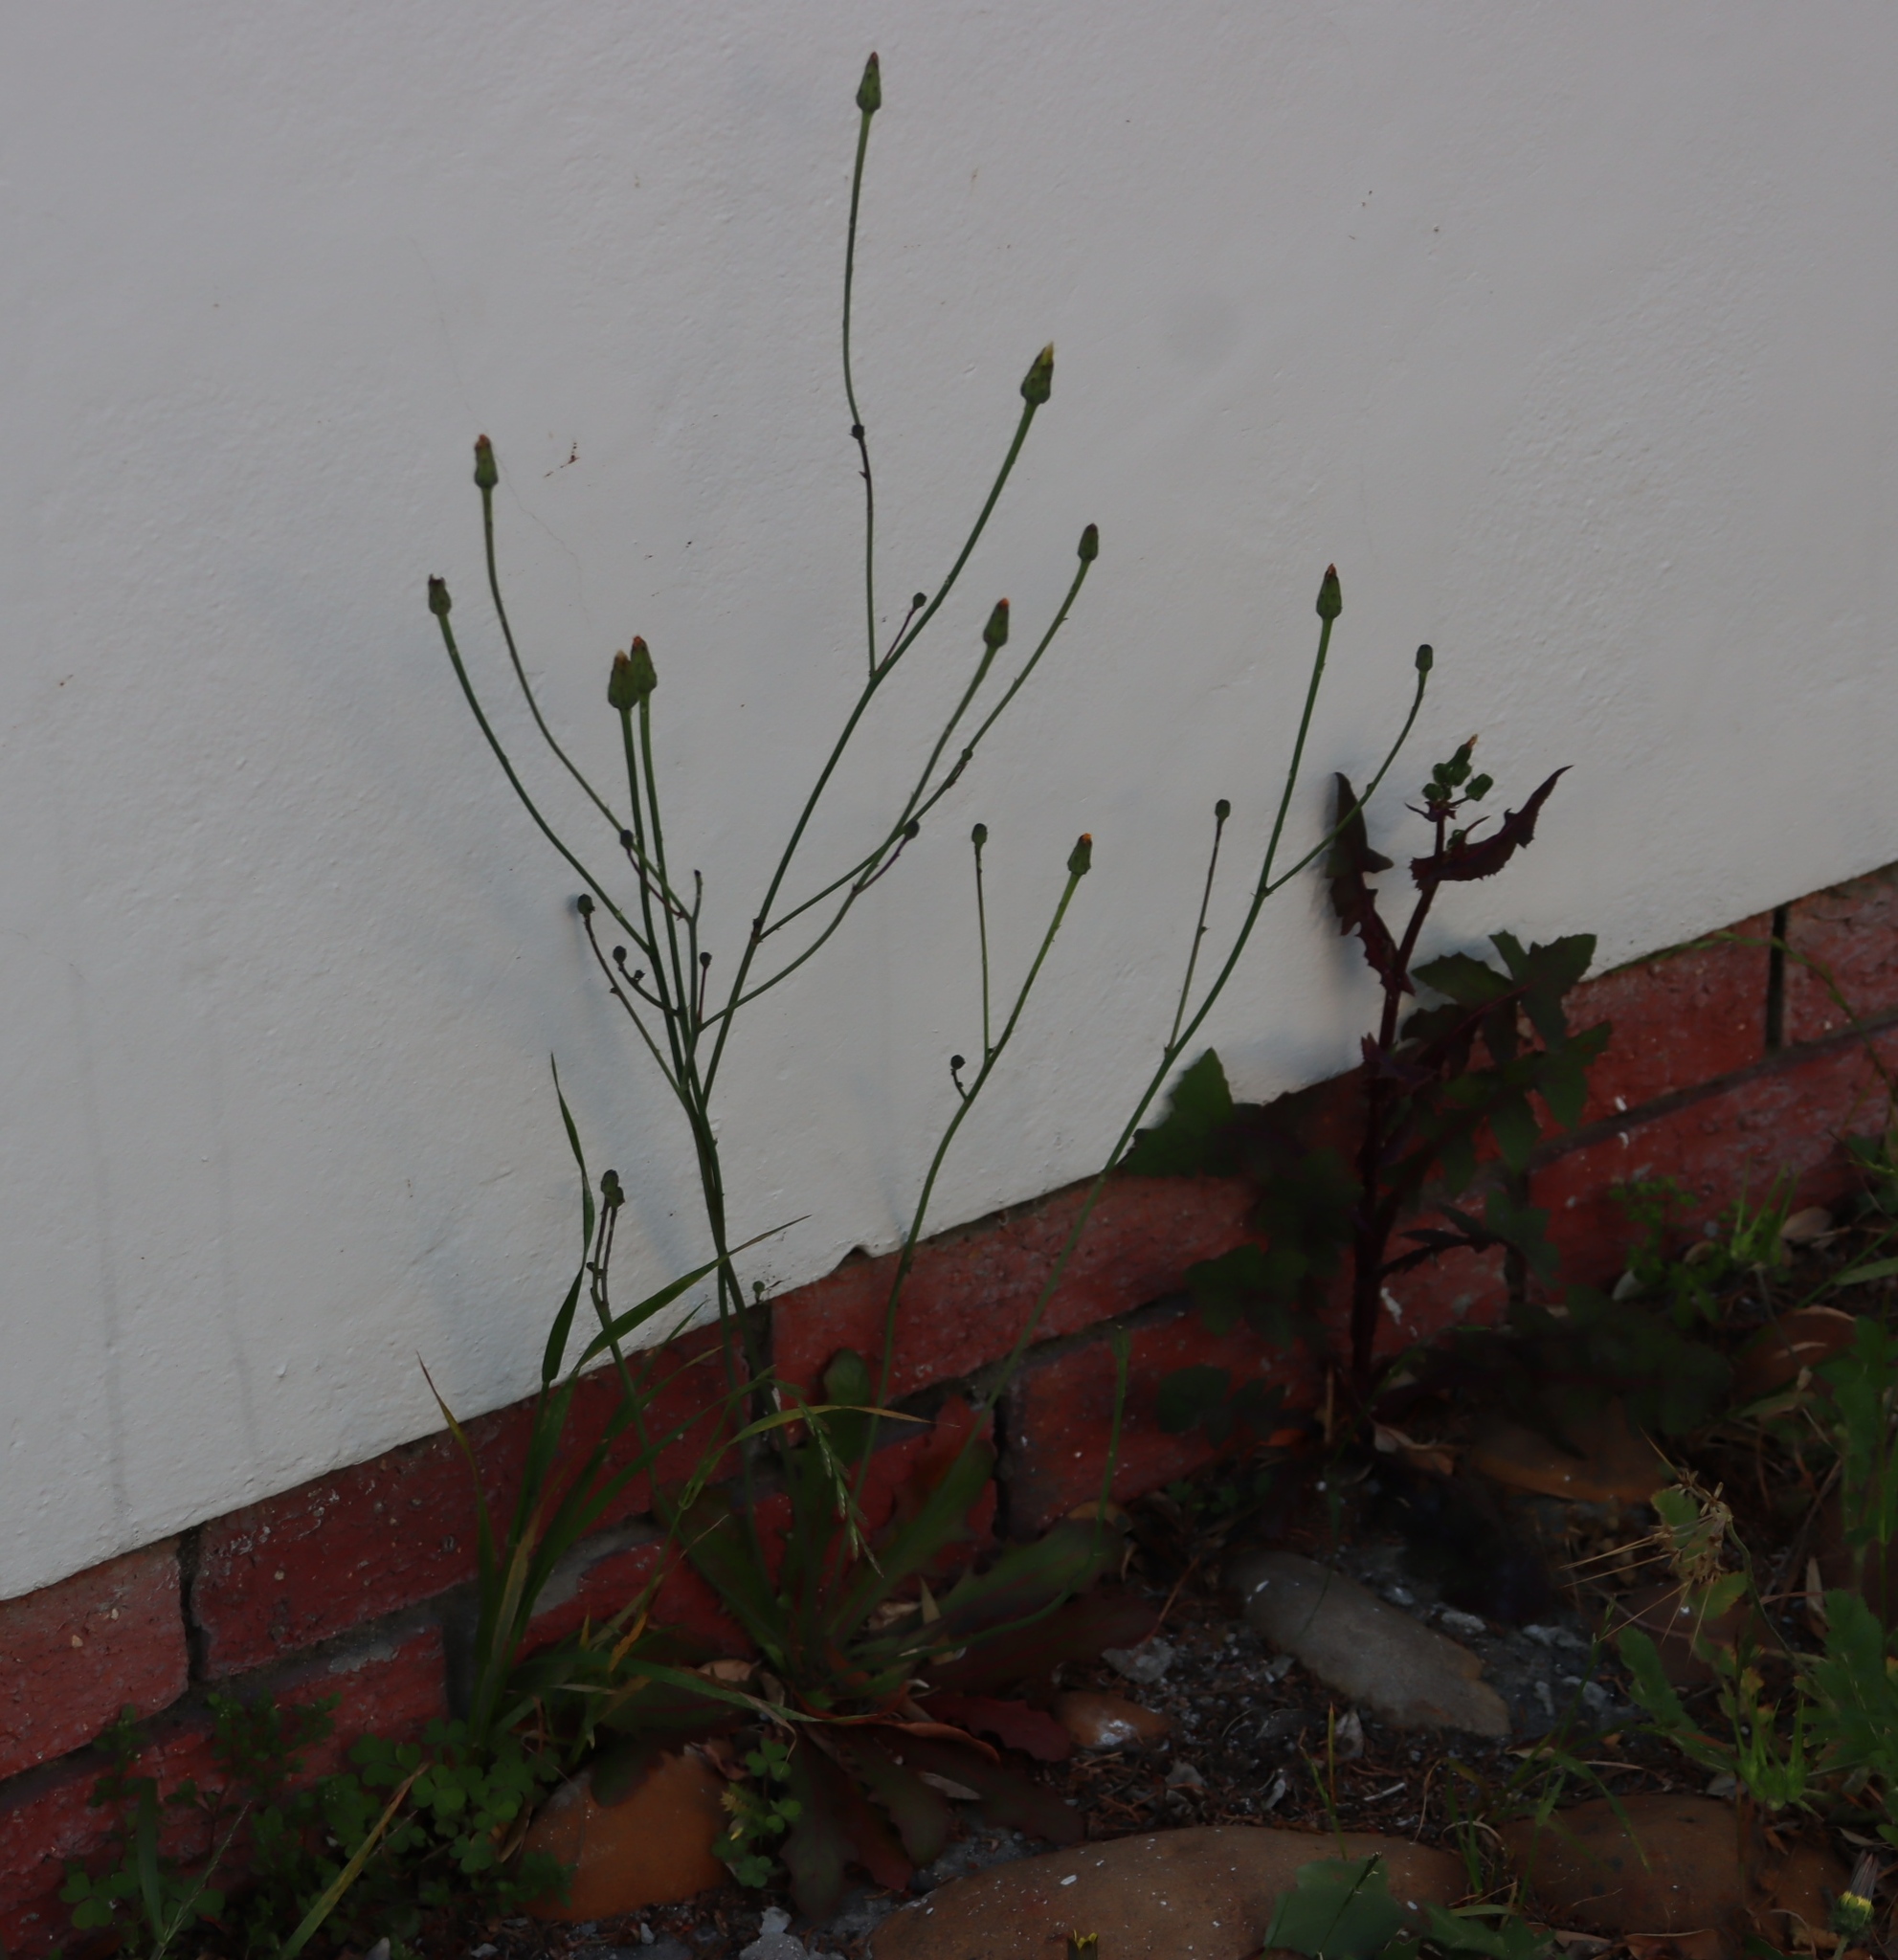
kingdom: Plantae
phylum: Tracheophyta
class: Magnoliopsida
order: Asterales
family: Asteraceae
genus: Hypochaeris
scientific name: Hypochaeris radicata
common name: Flatweed
